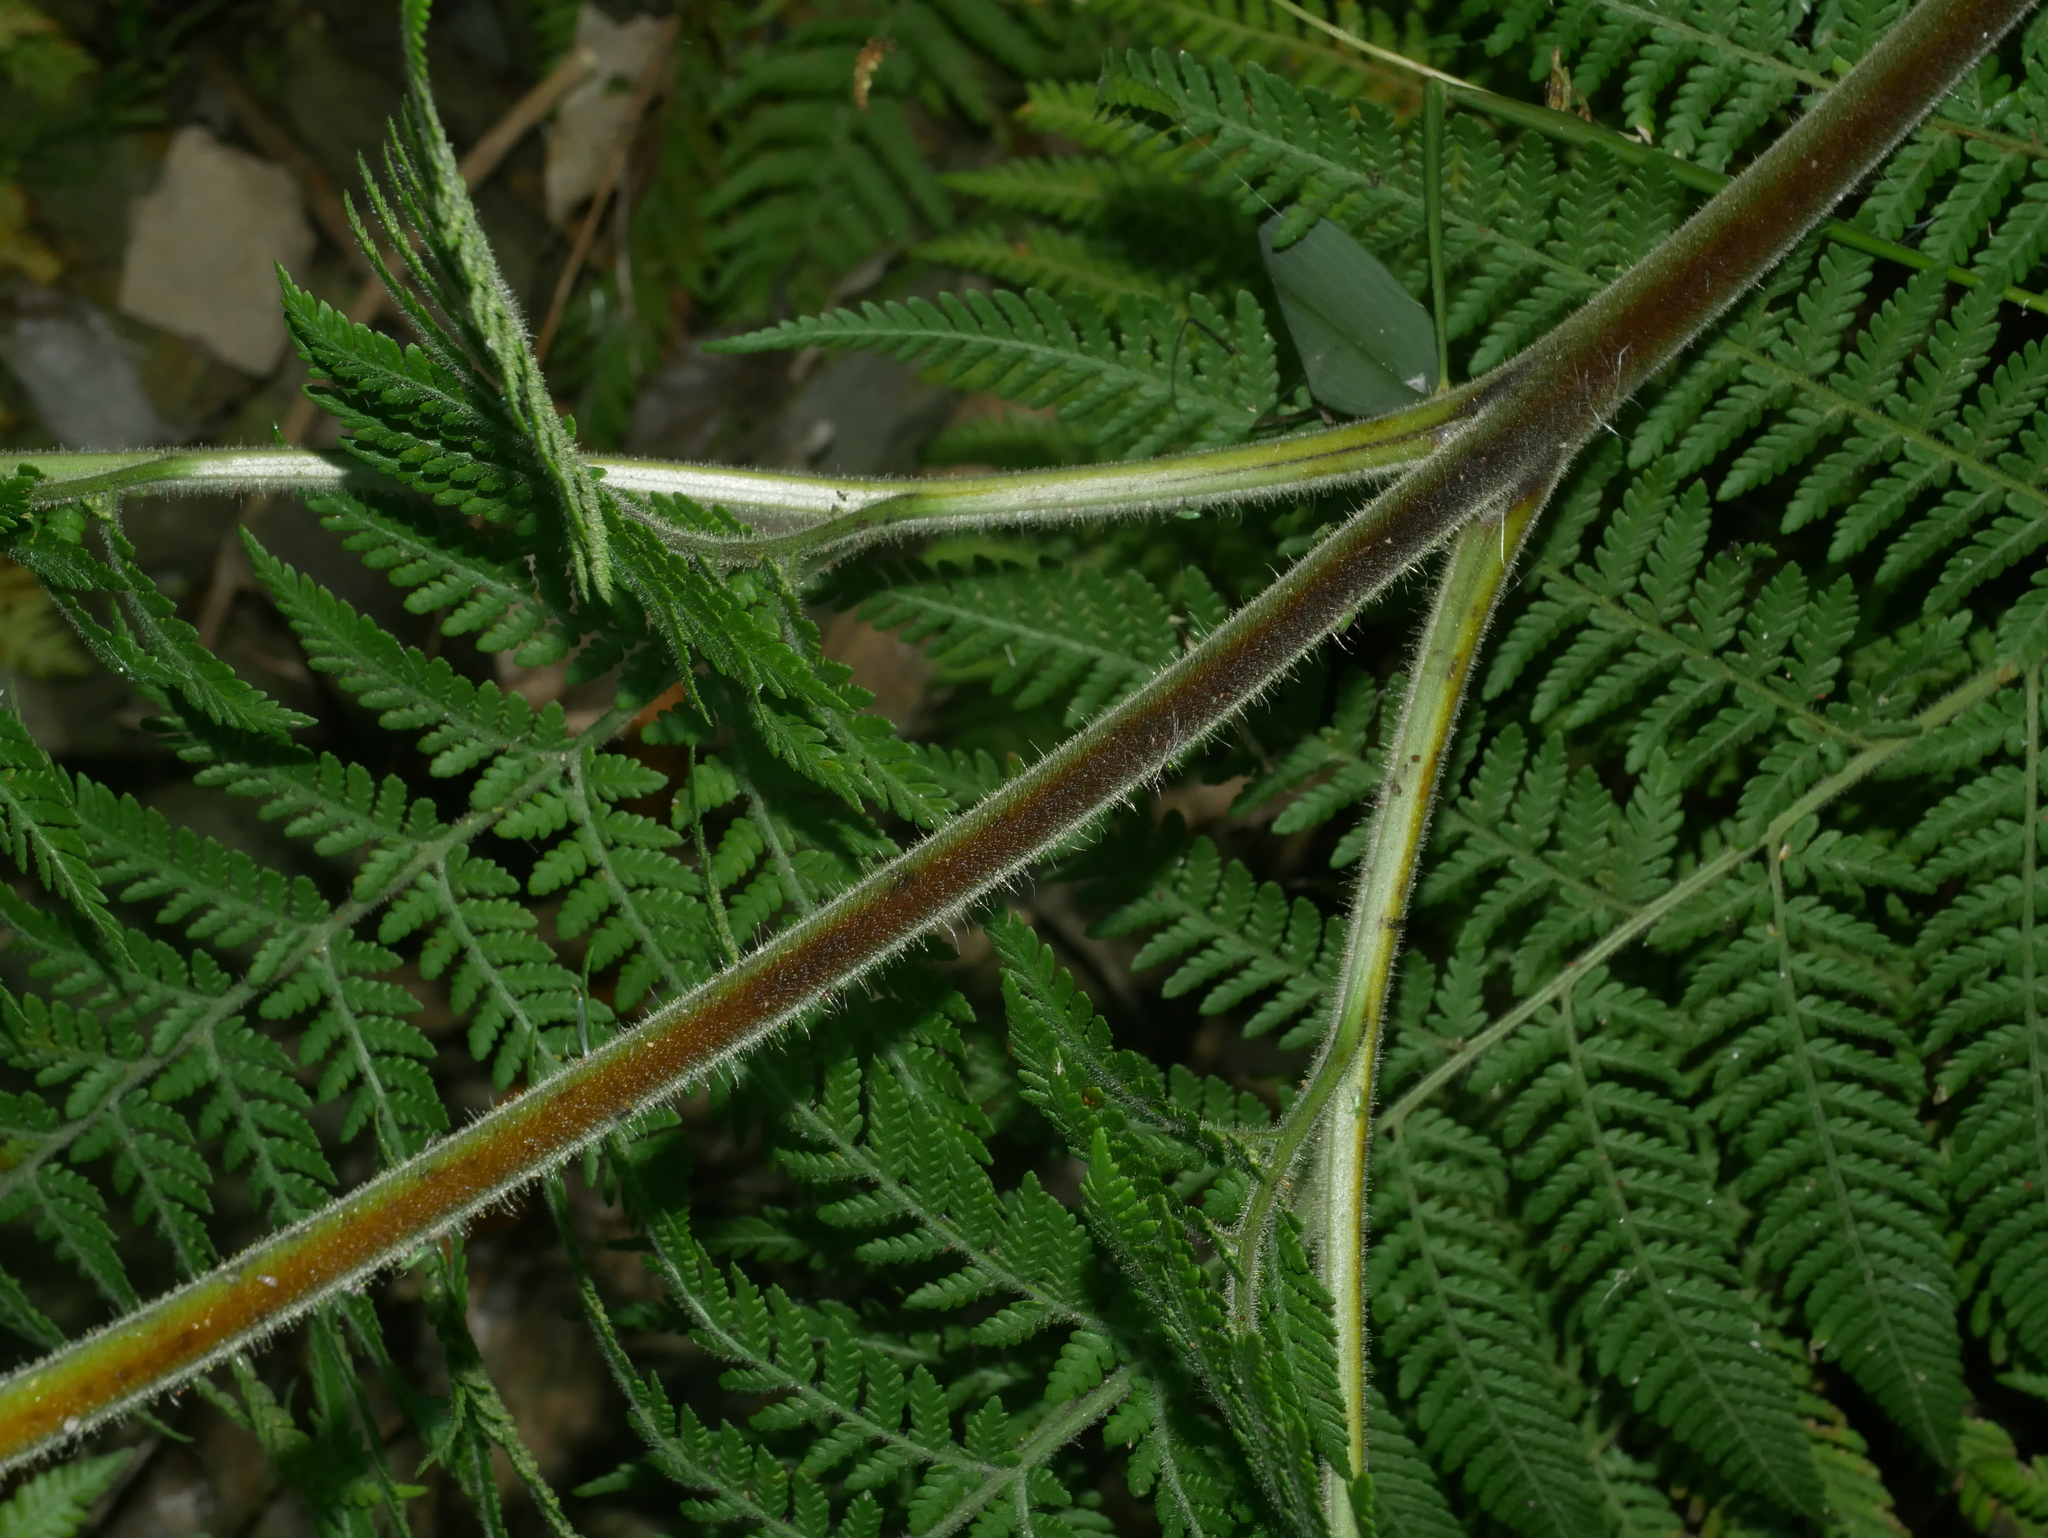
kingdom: Plantae
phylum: Tracheophyta
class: Polypodiopsida
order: Polypodiales
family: Dennstaedtiaceae
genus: Hypolepis
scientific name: Hypolepis tenuifolia
